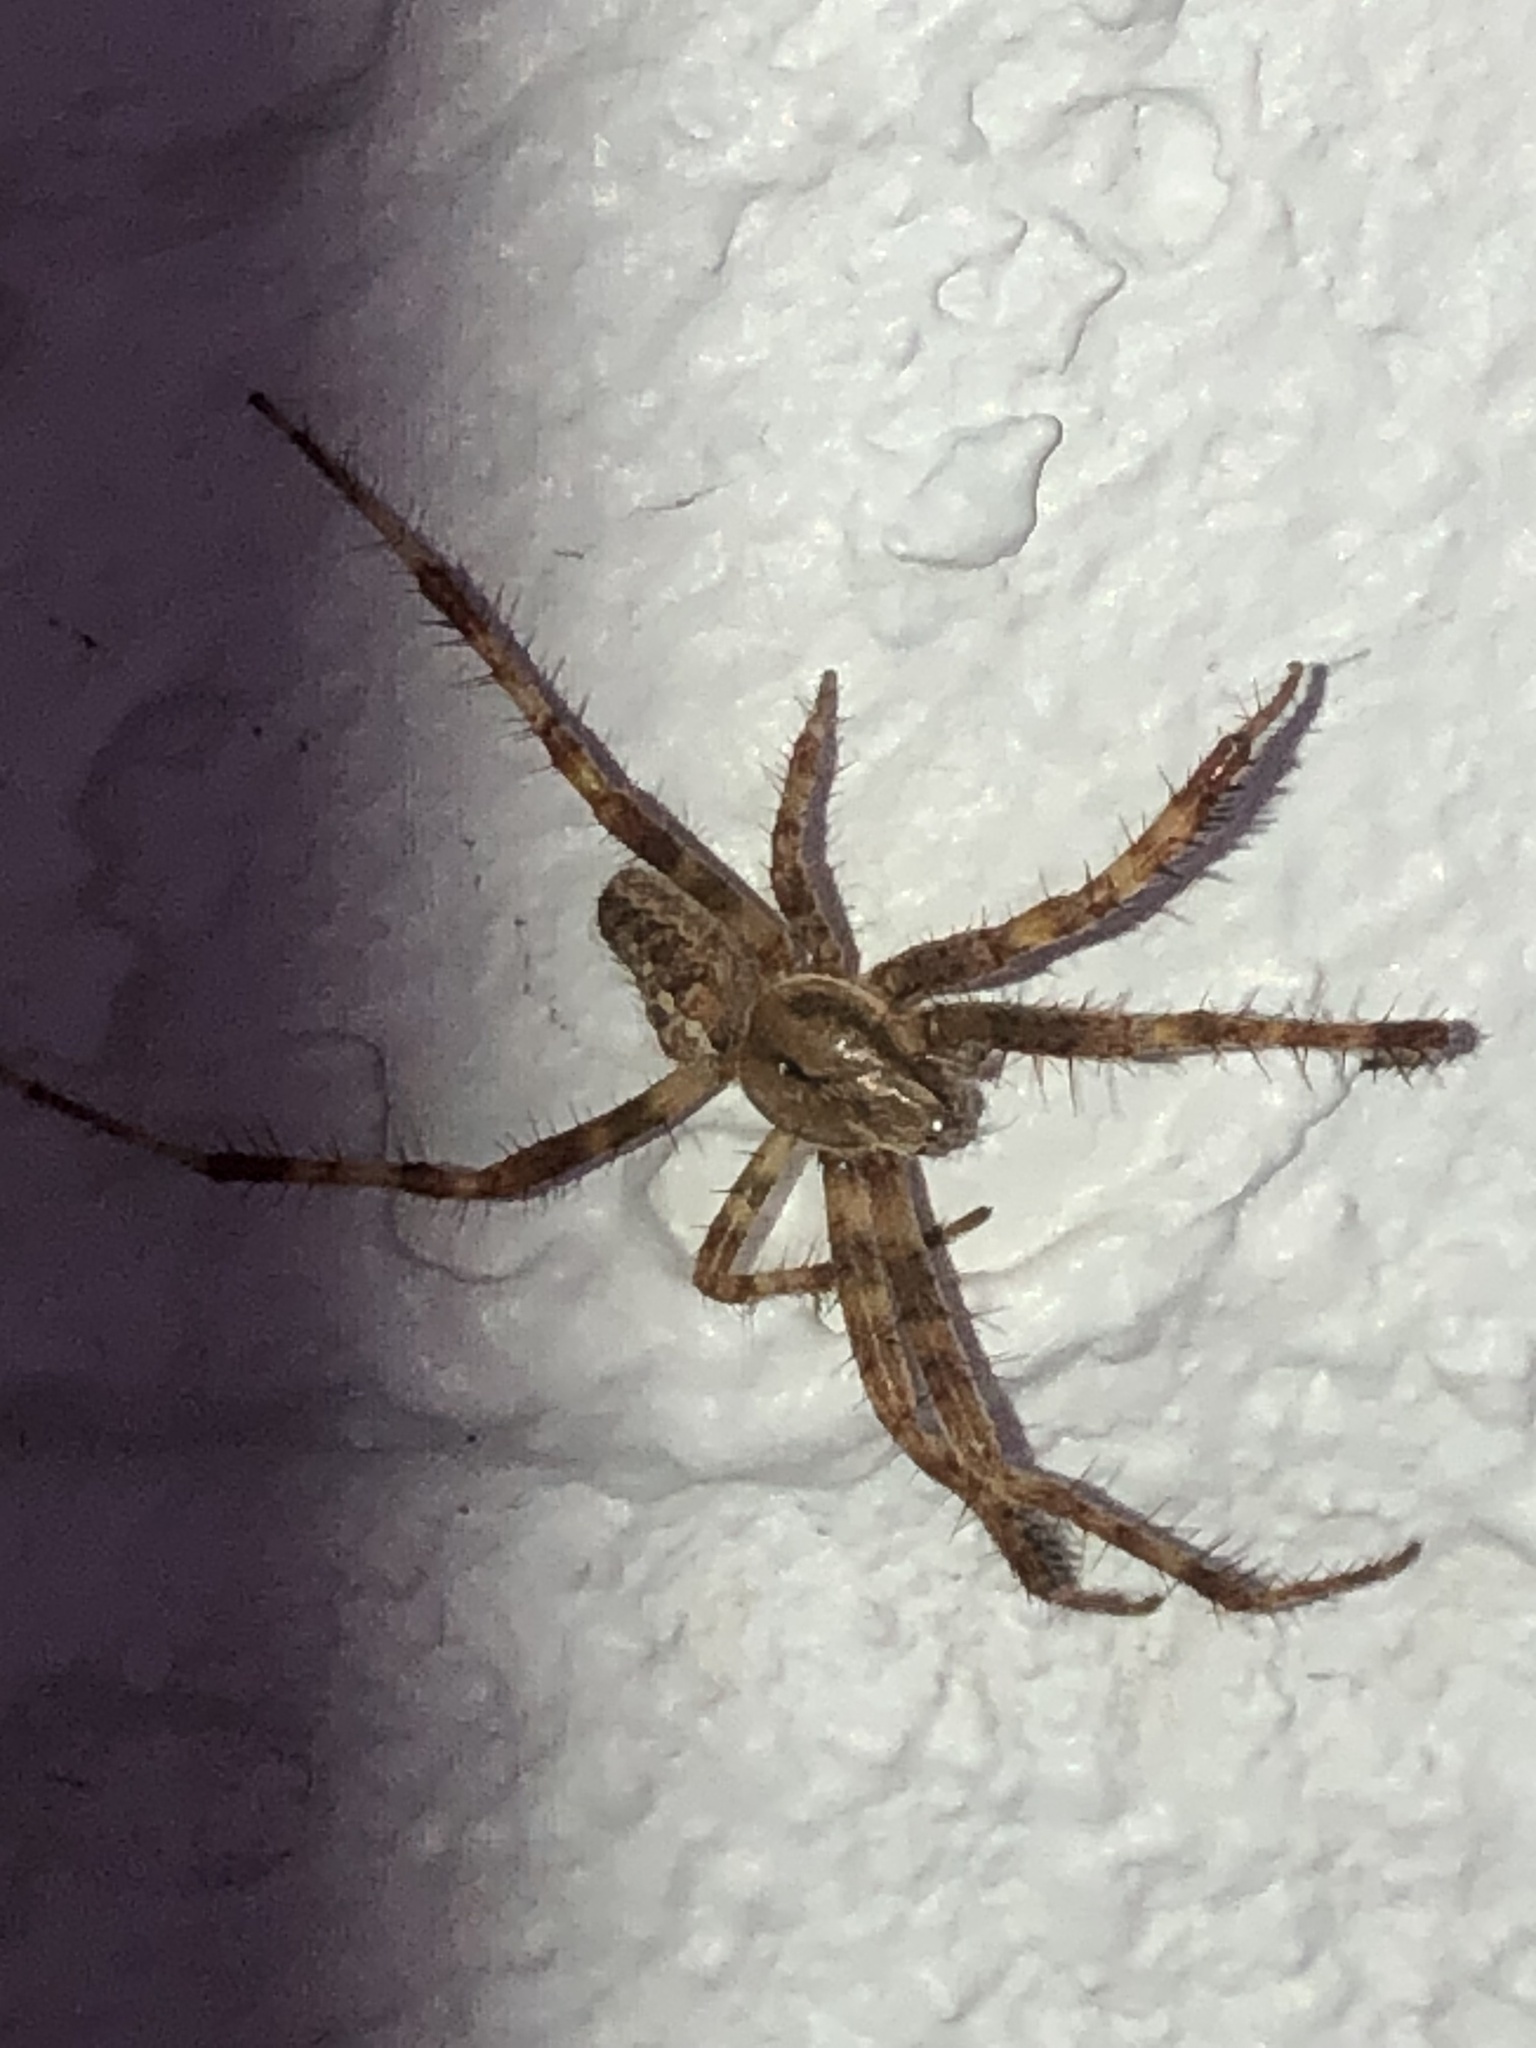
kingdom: Animalia
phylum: Arthropoda
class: Arachnida
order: Araneae
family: Araneidae
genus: Araneus
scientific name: Araneus diadematus
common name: Cross orbweaver
